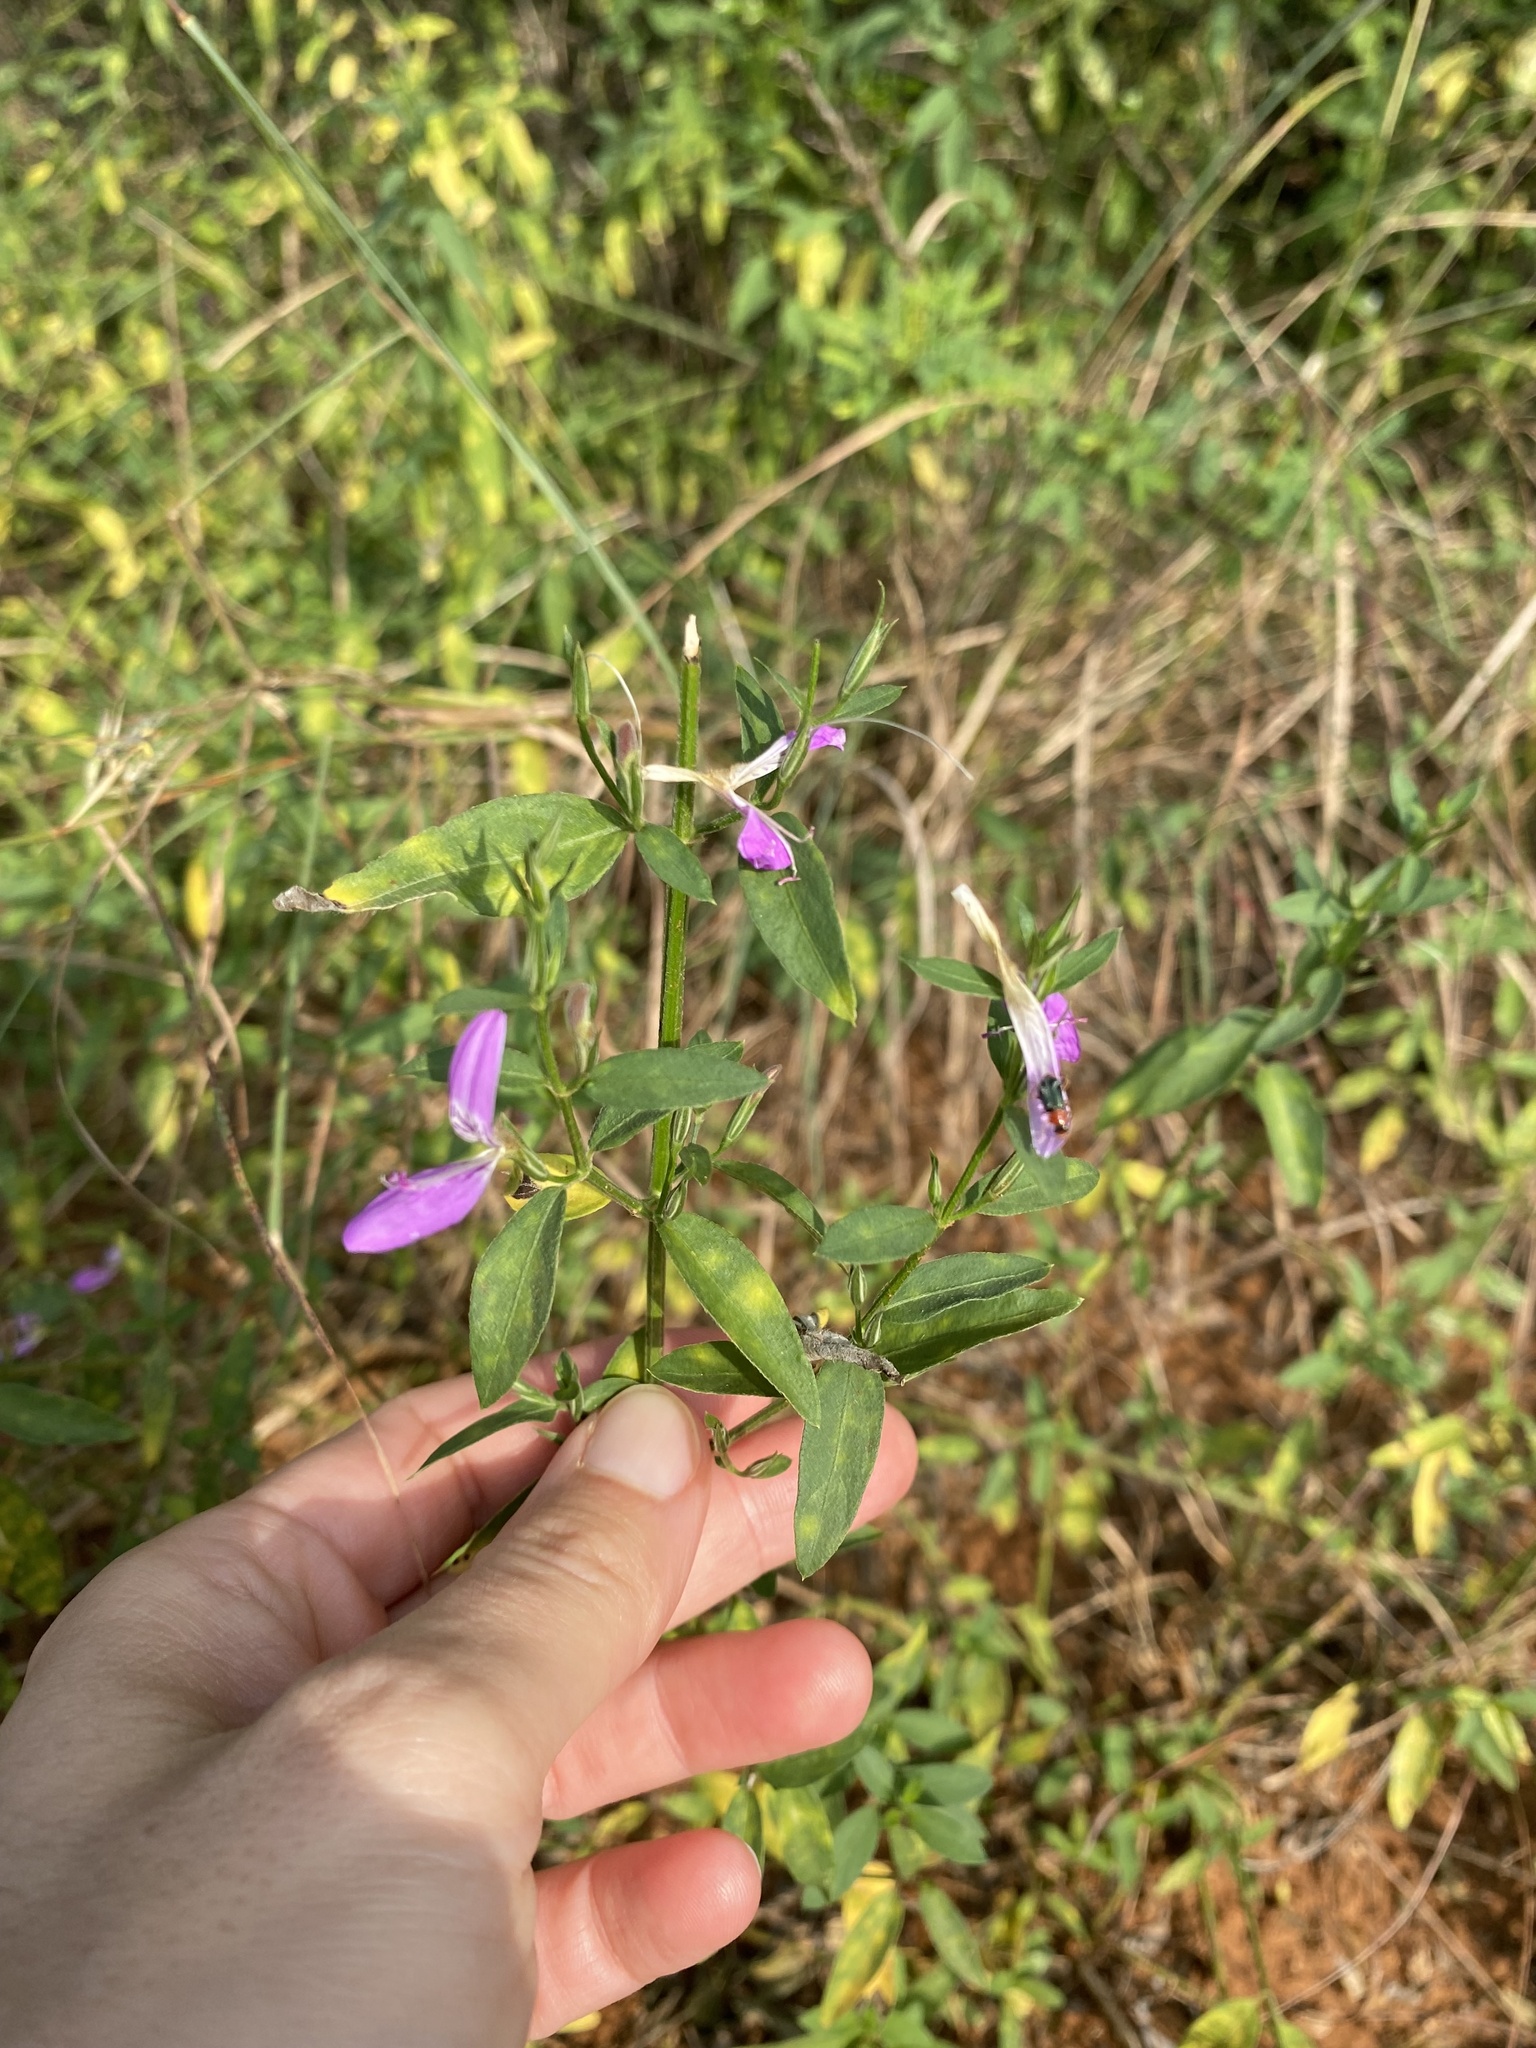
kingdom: Plantae
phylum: Tracheophyta
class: Magnoliopsida
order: Lamiales
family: Acanthaceae
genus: Dicliptera
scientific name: Dicliptera cernua
